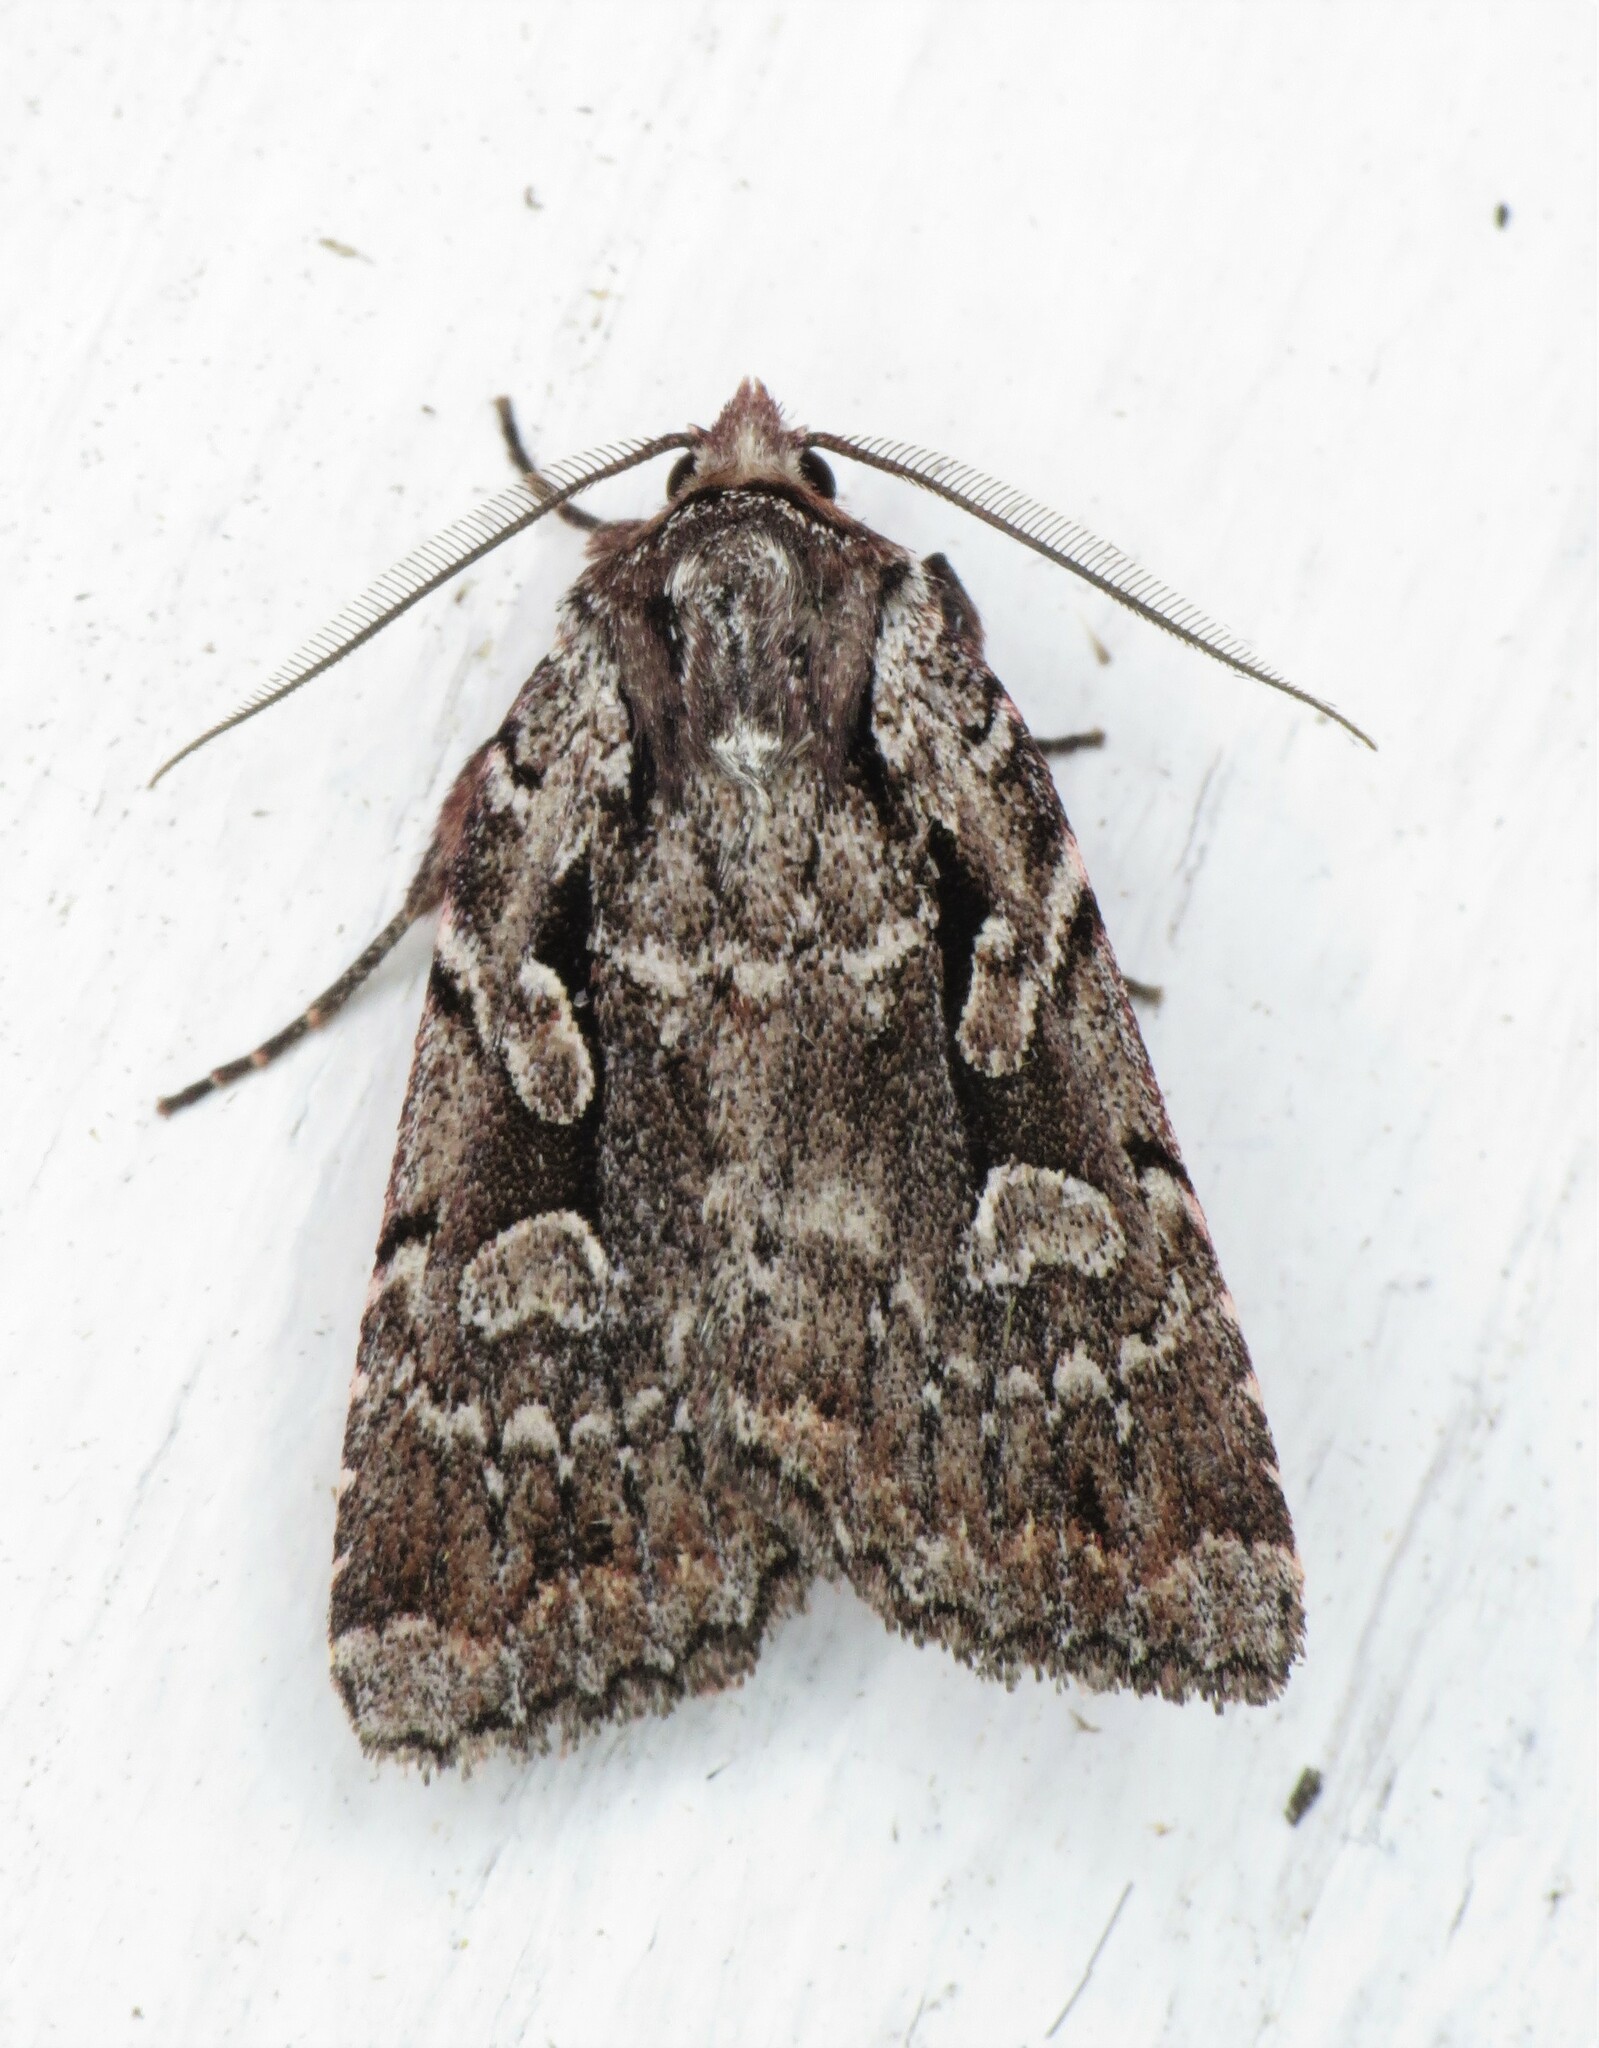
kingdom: Animalia
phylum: Arthropoda
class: Insecta
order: Lepidoptera
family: Noctuidae
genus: Xestia
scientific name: Xestia badicollis
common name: Northern variable dart
